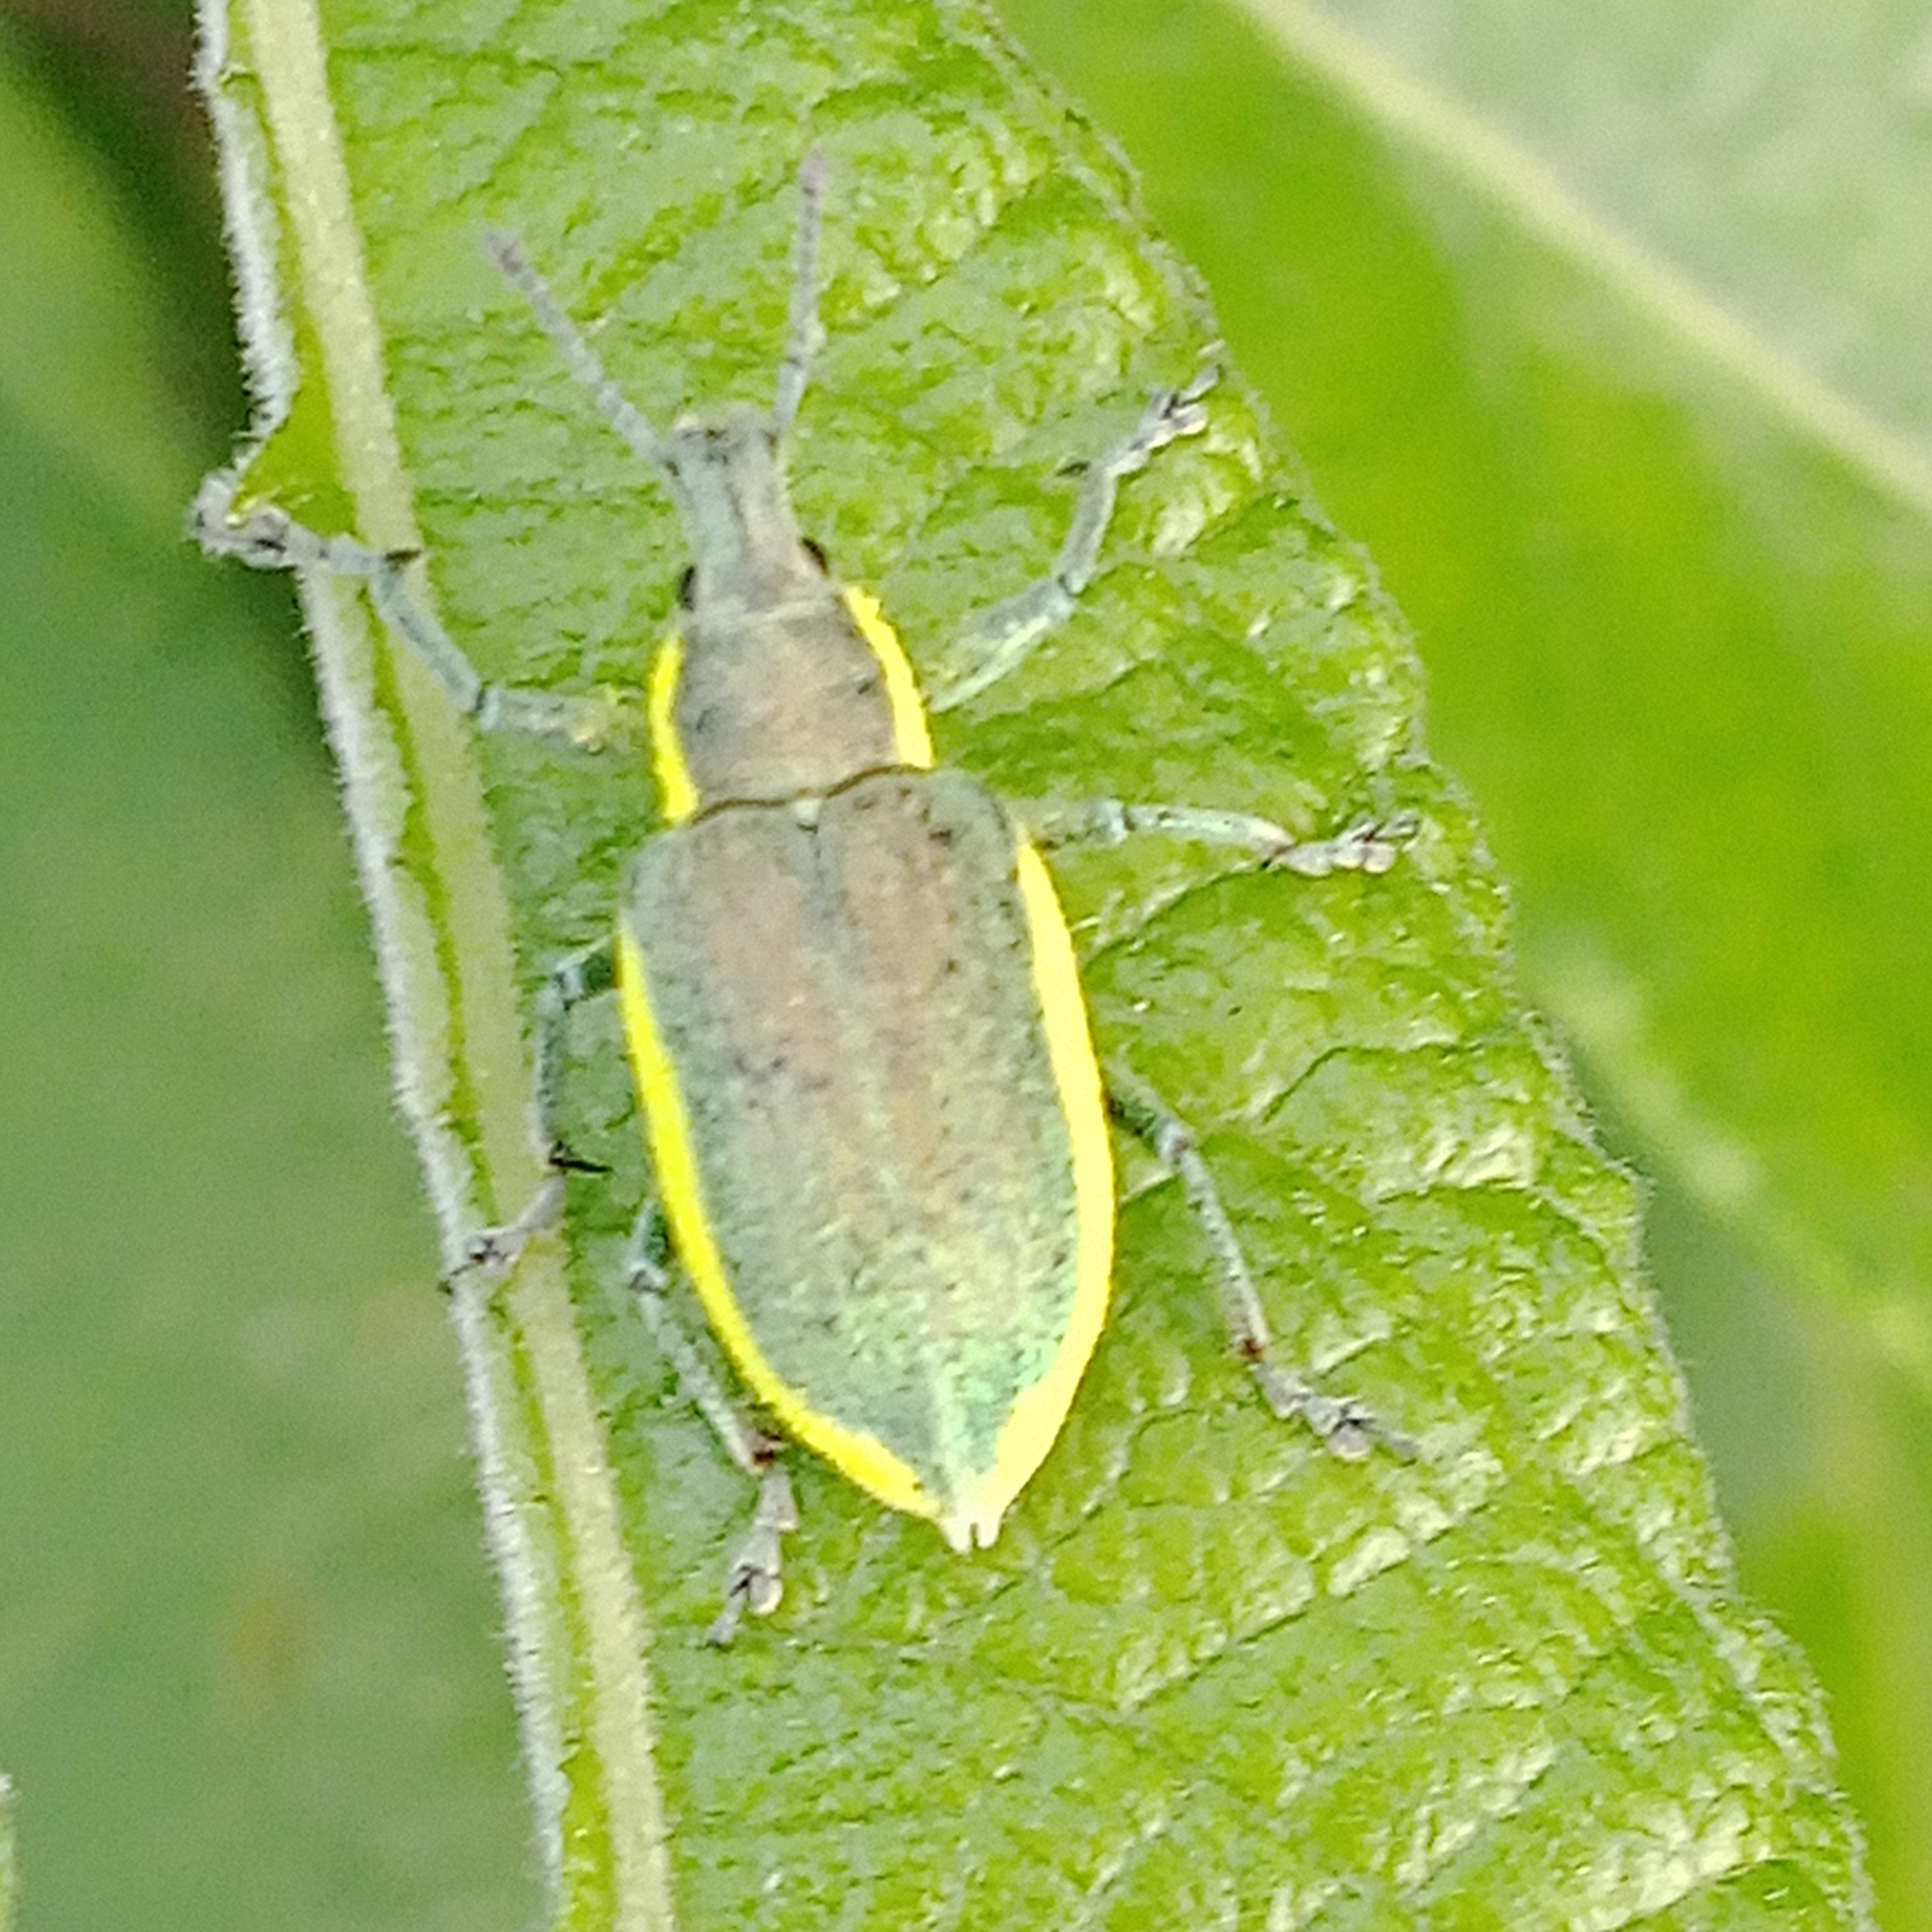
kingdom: Animalia
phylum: Arthropoda
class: Insecta
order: Coleoptera
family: Curculionidae
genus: Chlorophanus
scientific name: Chlorophanus viridis
